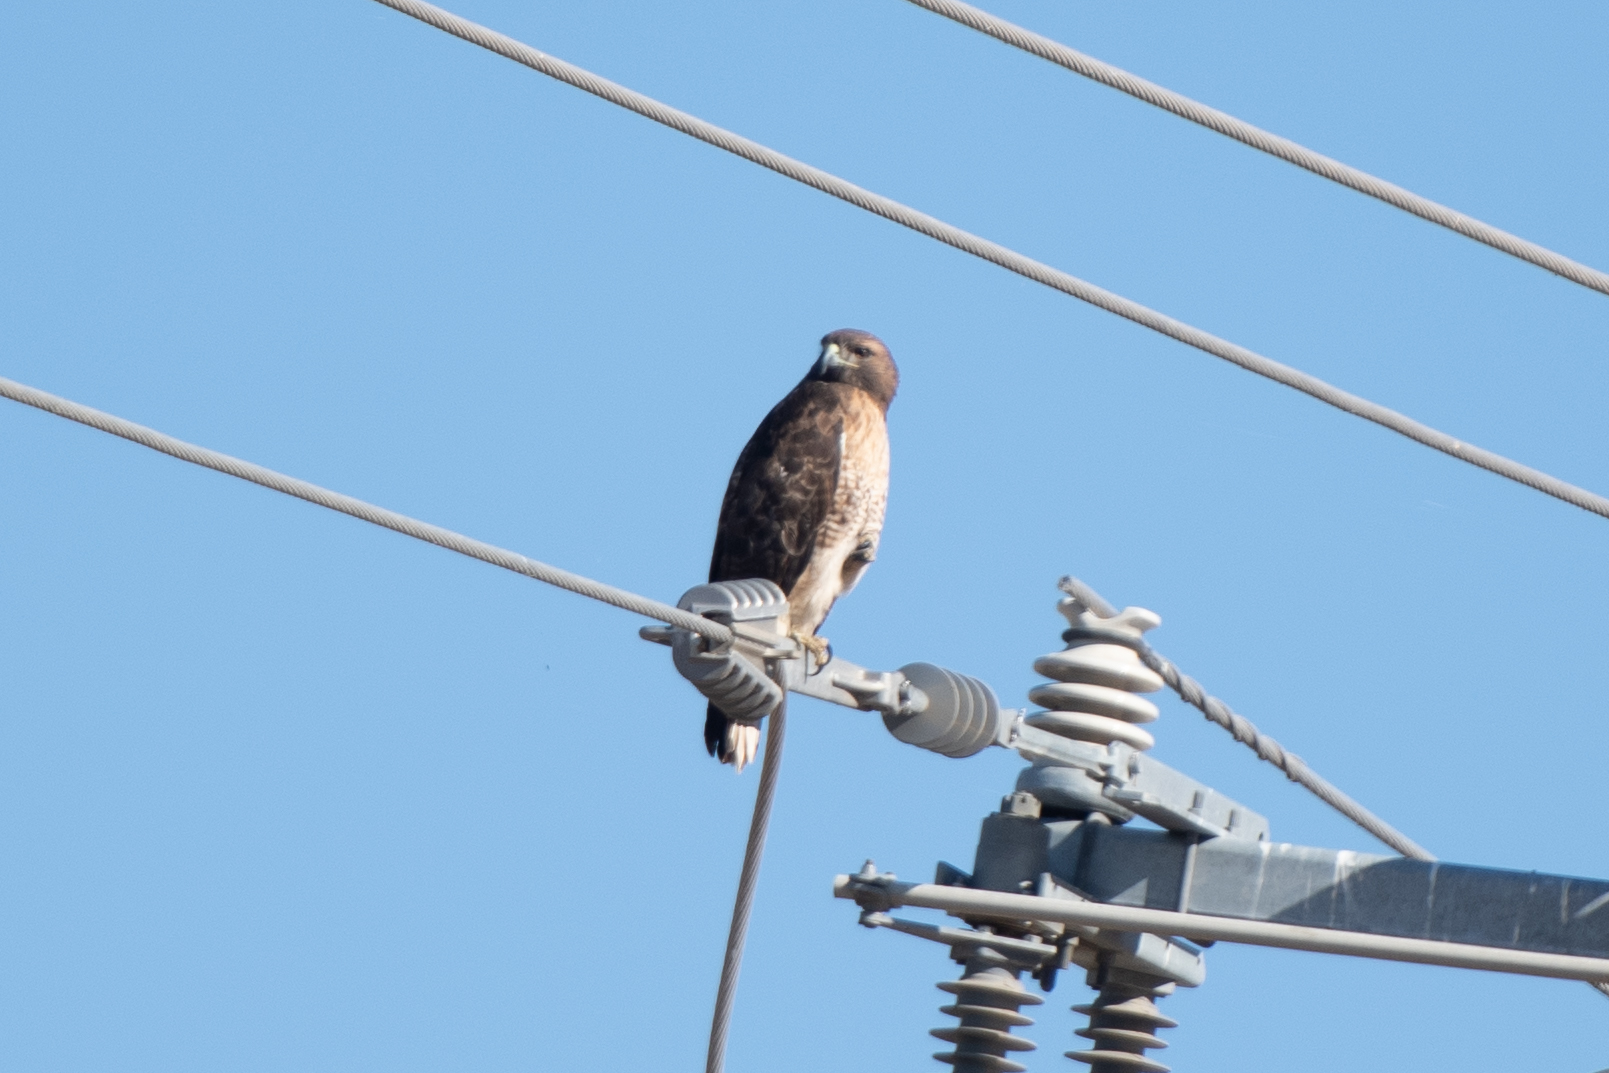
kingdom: Animalia
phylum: Chordata
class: Aves
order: Accipitriformes
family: Accipitridae
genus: Buteo
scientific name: Buteo jamaicensis
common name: Red-tailed hawk
